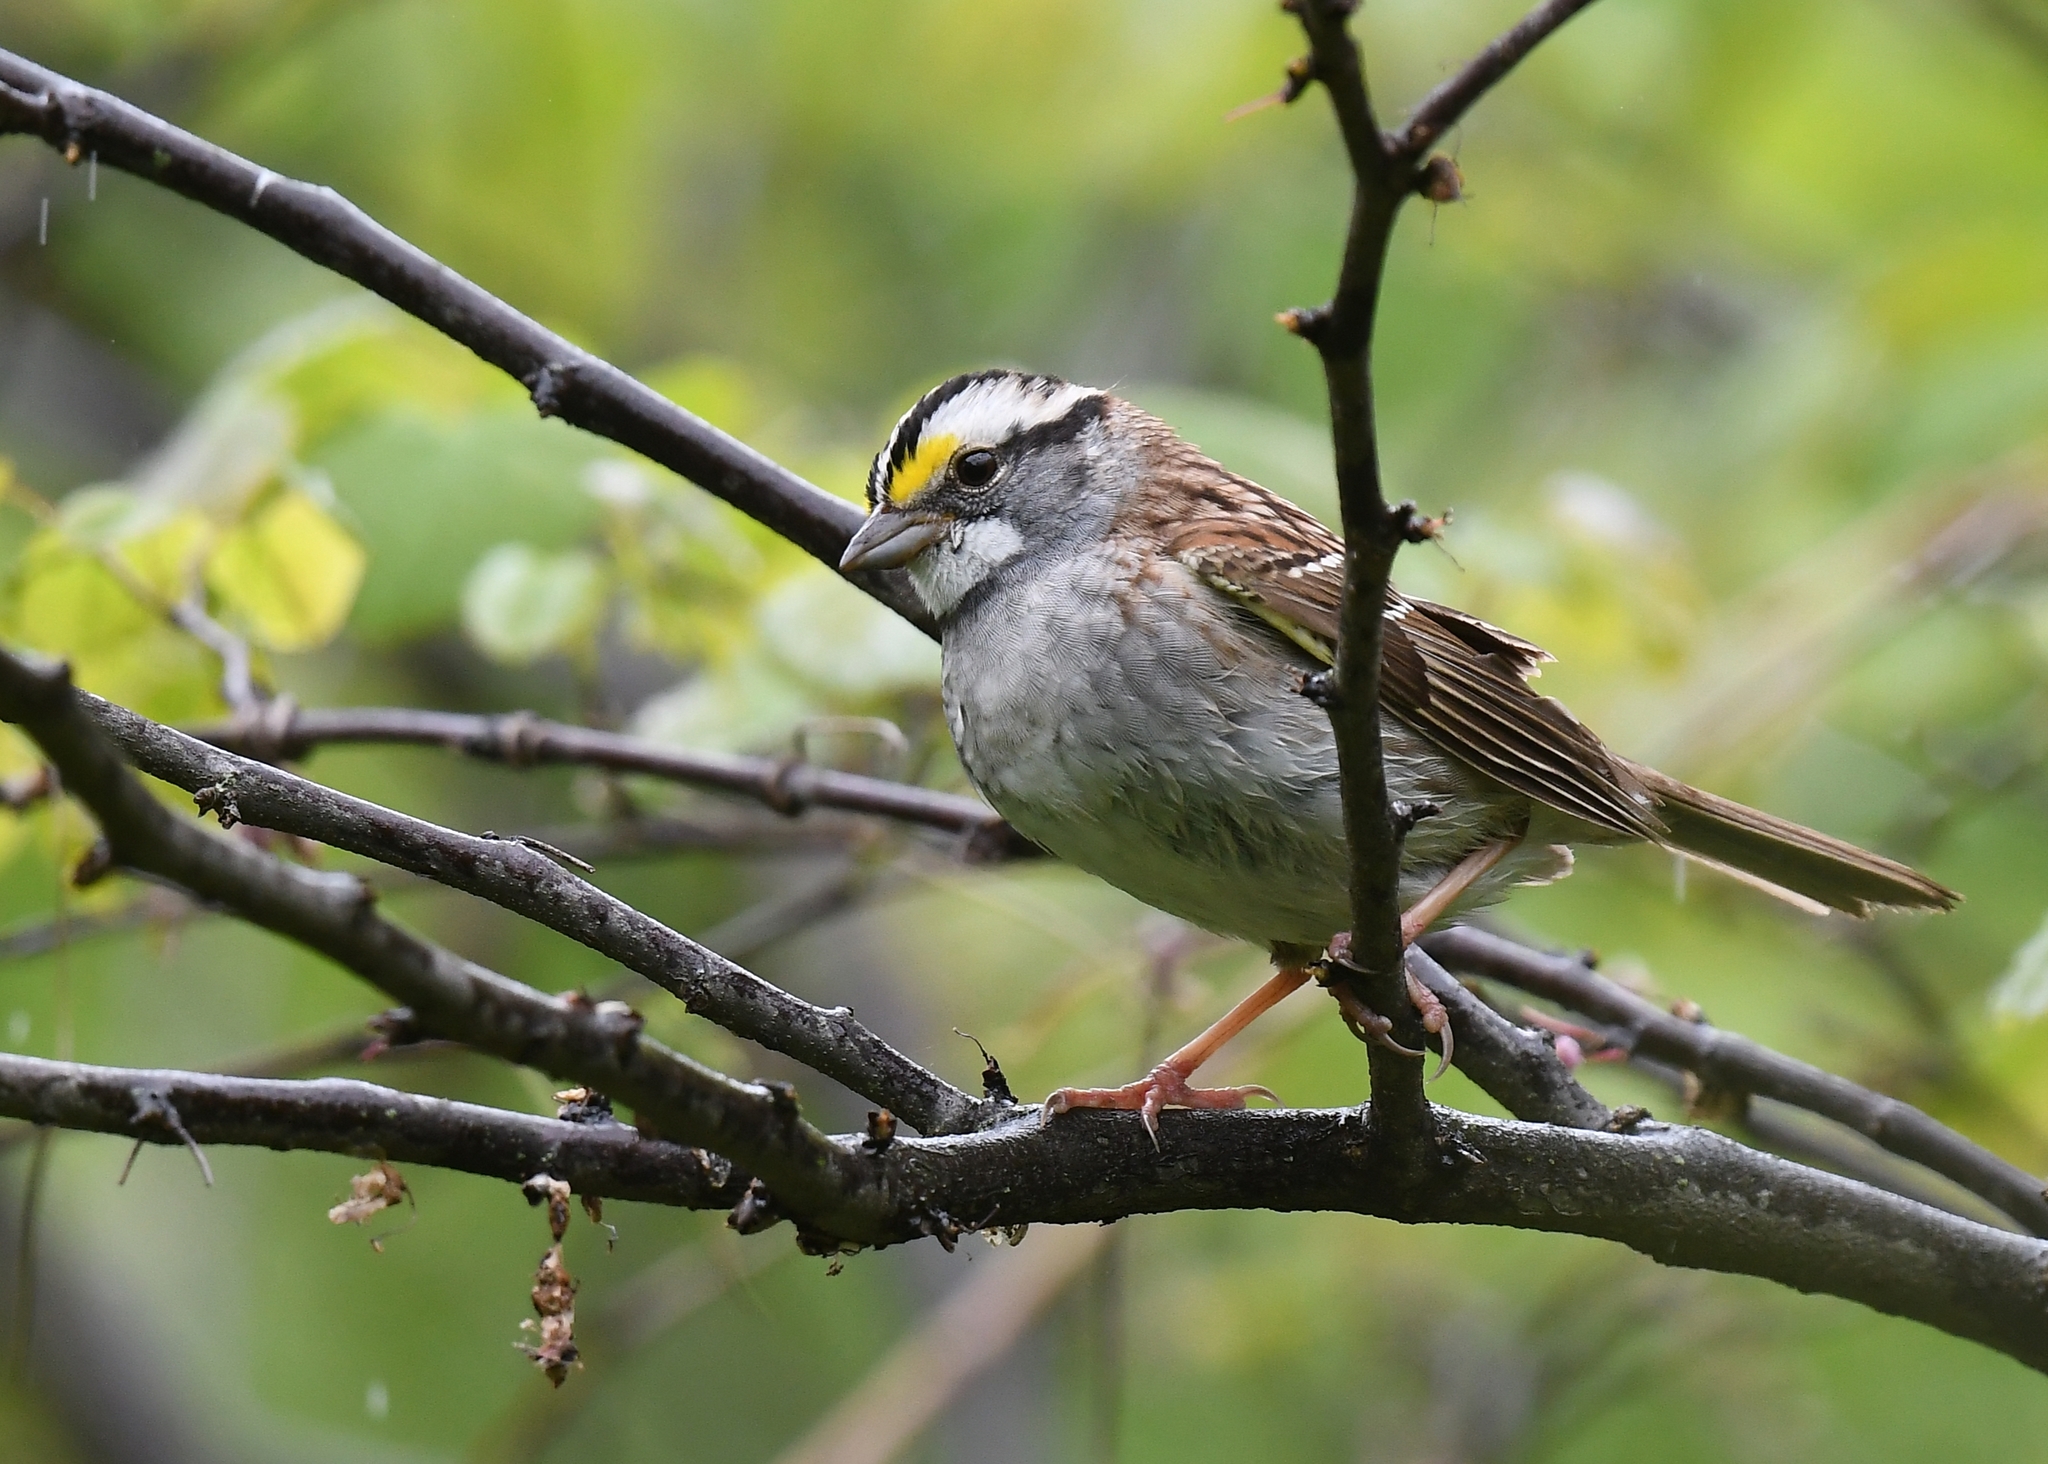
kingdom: Animalia
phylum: Chordata
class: Aves
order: Passeriformes
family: Passerellidae
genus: Zonotrichia
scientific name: Zonotrichia albicollis
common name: White-throated sparrow
